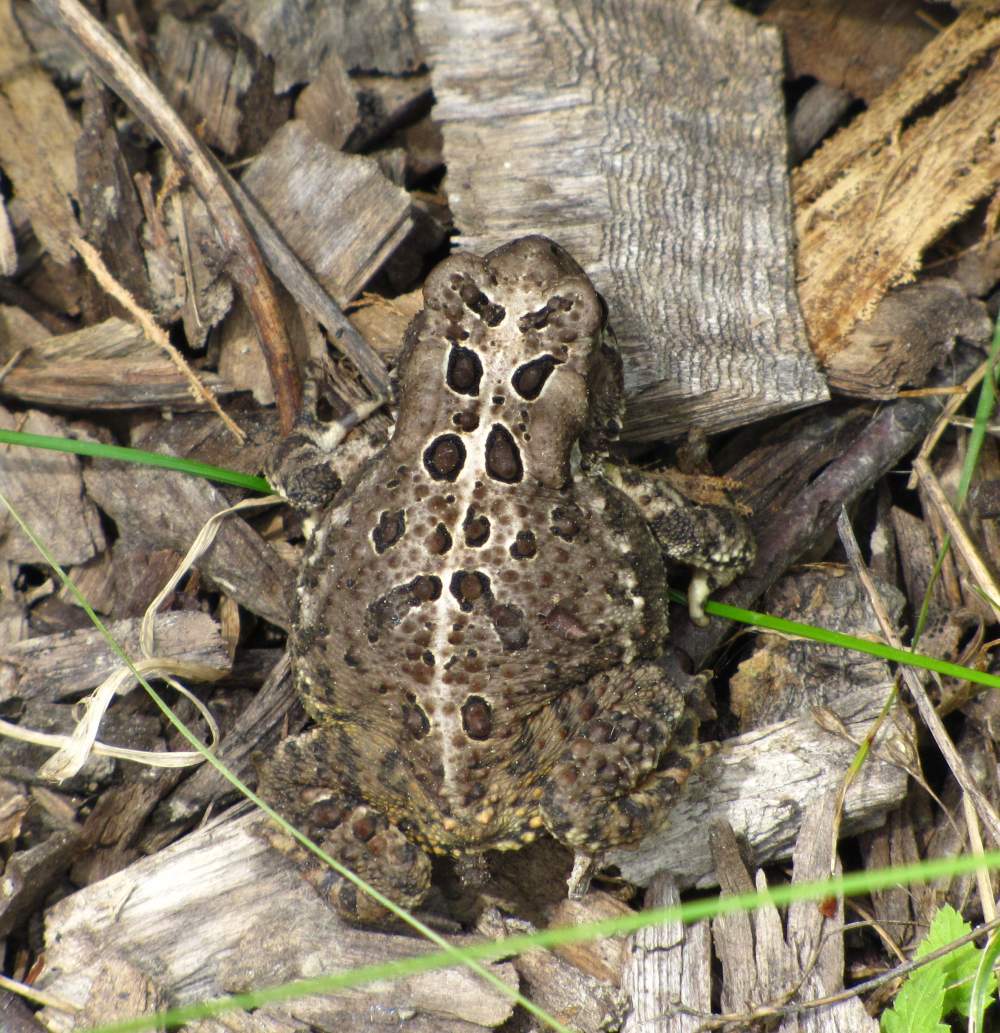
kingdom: Animalia
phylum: Chordata
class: Amphibia
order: Anura
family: Bufonidae
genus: Anaxyrus
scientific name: Anaxyrus americanus
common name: American toad
